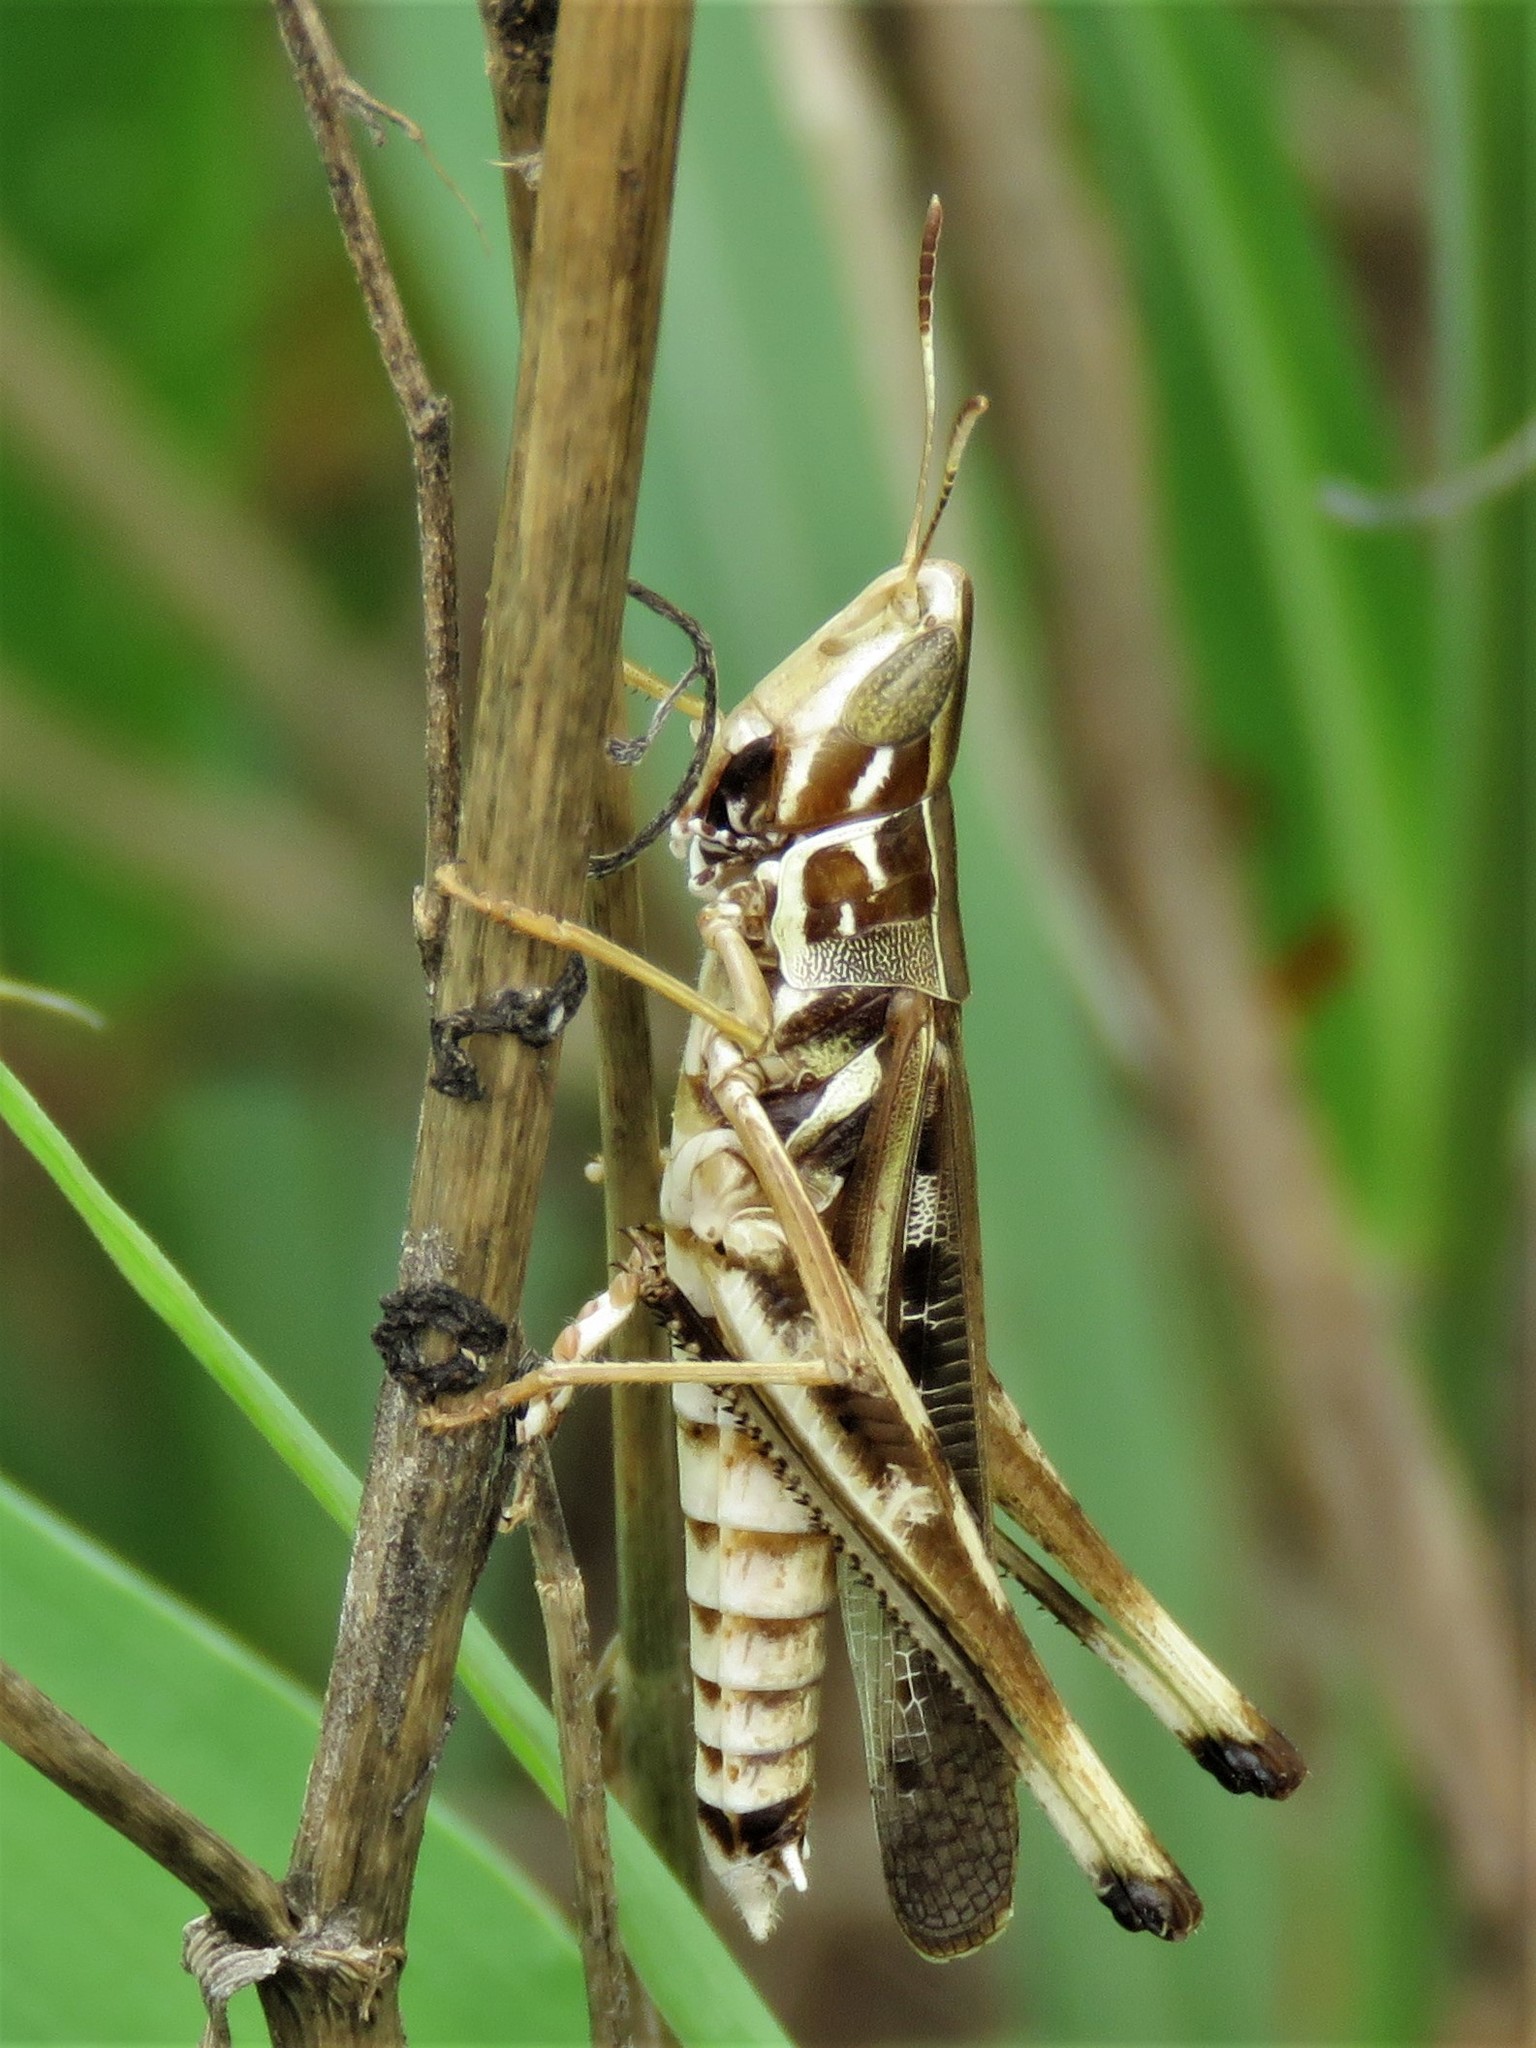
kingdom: Animalia
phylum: Arthropoda
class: Insecta
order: Orthoptera
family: Acrididae
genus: Syrbula
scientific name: Syrbula admirabilis
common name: Handsome grasshopper
